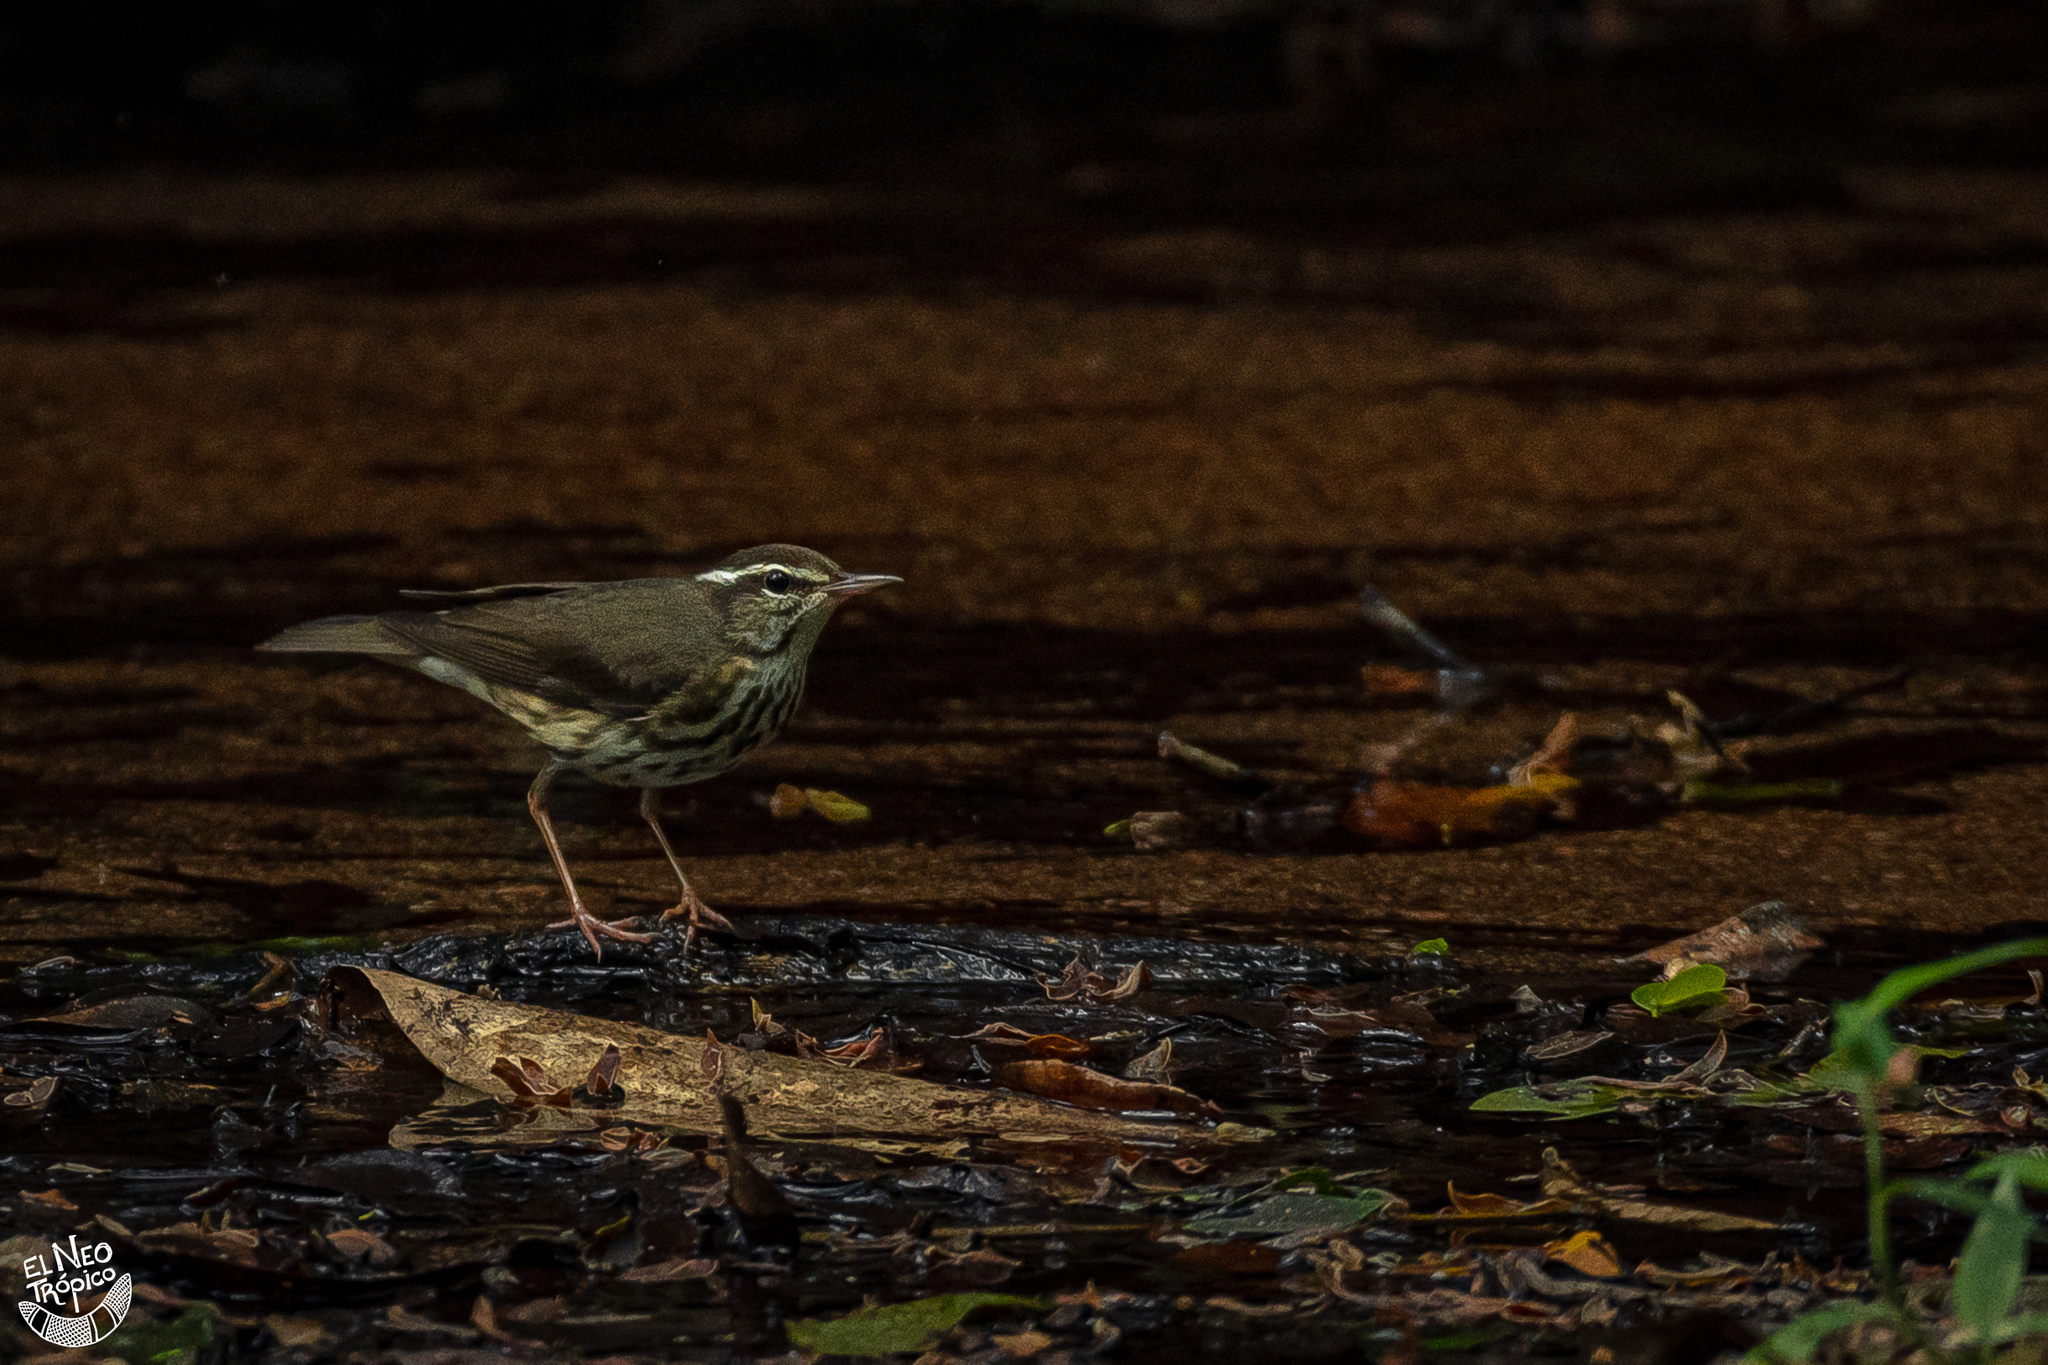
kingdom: Animalia
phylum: Chordata
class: Aves
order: Passeriformes
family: Parulidae
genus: Parkesia
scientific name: Parkesia motacilla
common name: Louisiana waterthrush
